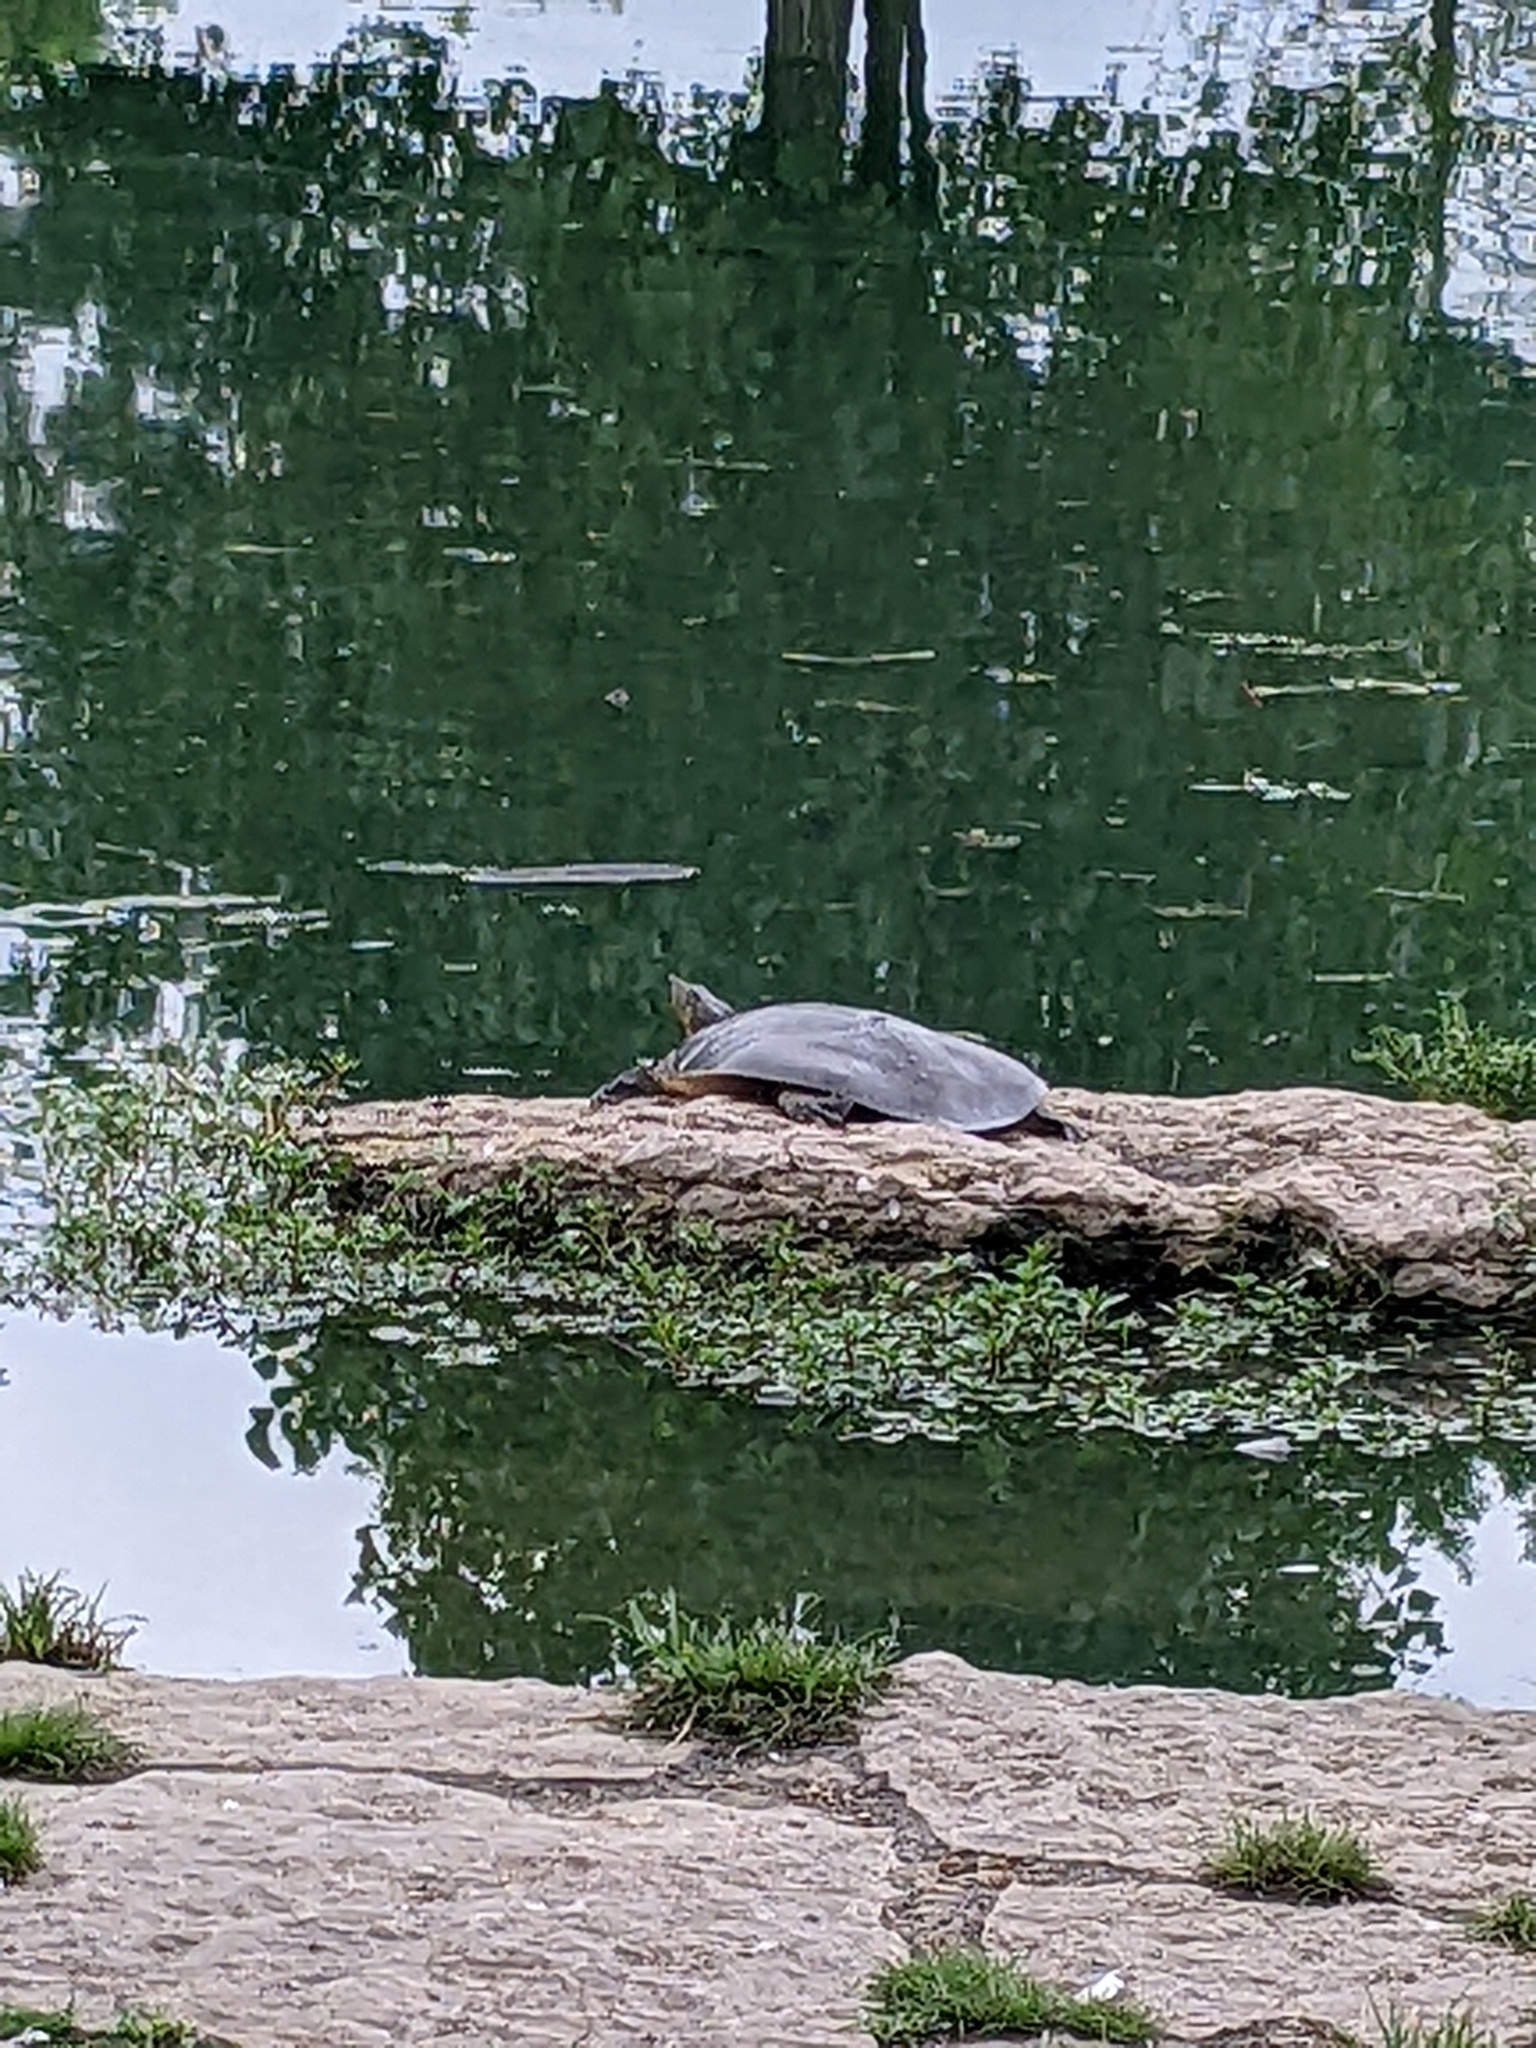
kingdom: Animalia
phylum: Chordata
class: Testudines
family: Trionychidae
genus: Apalone
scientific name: Apalone spinifera
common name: Spiny softshell turtle
